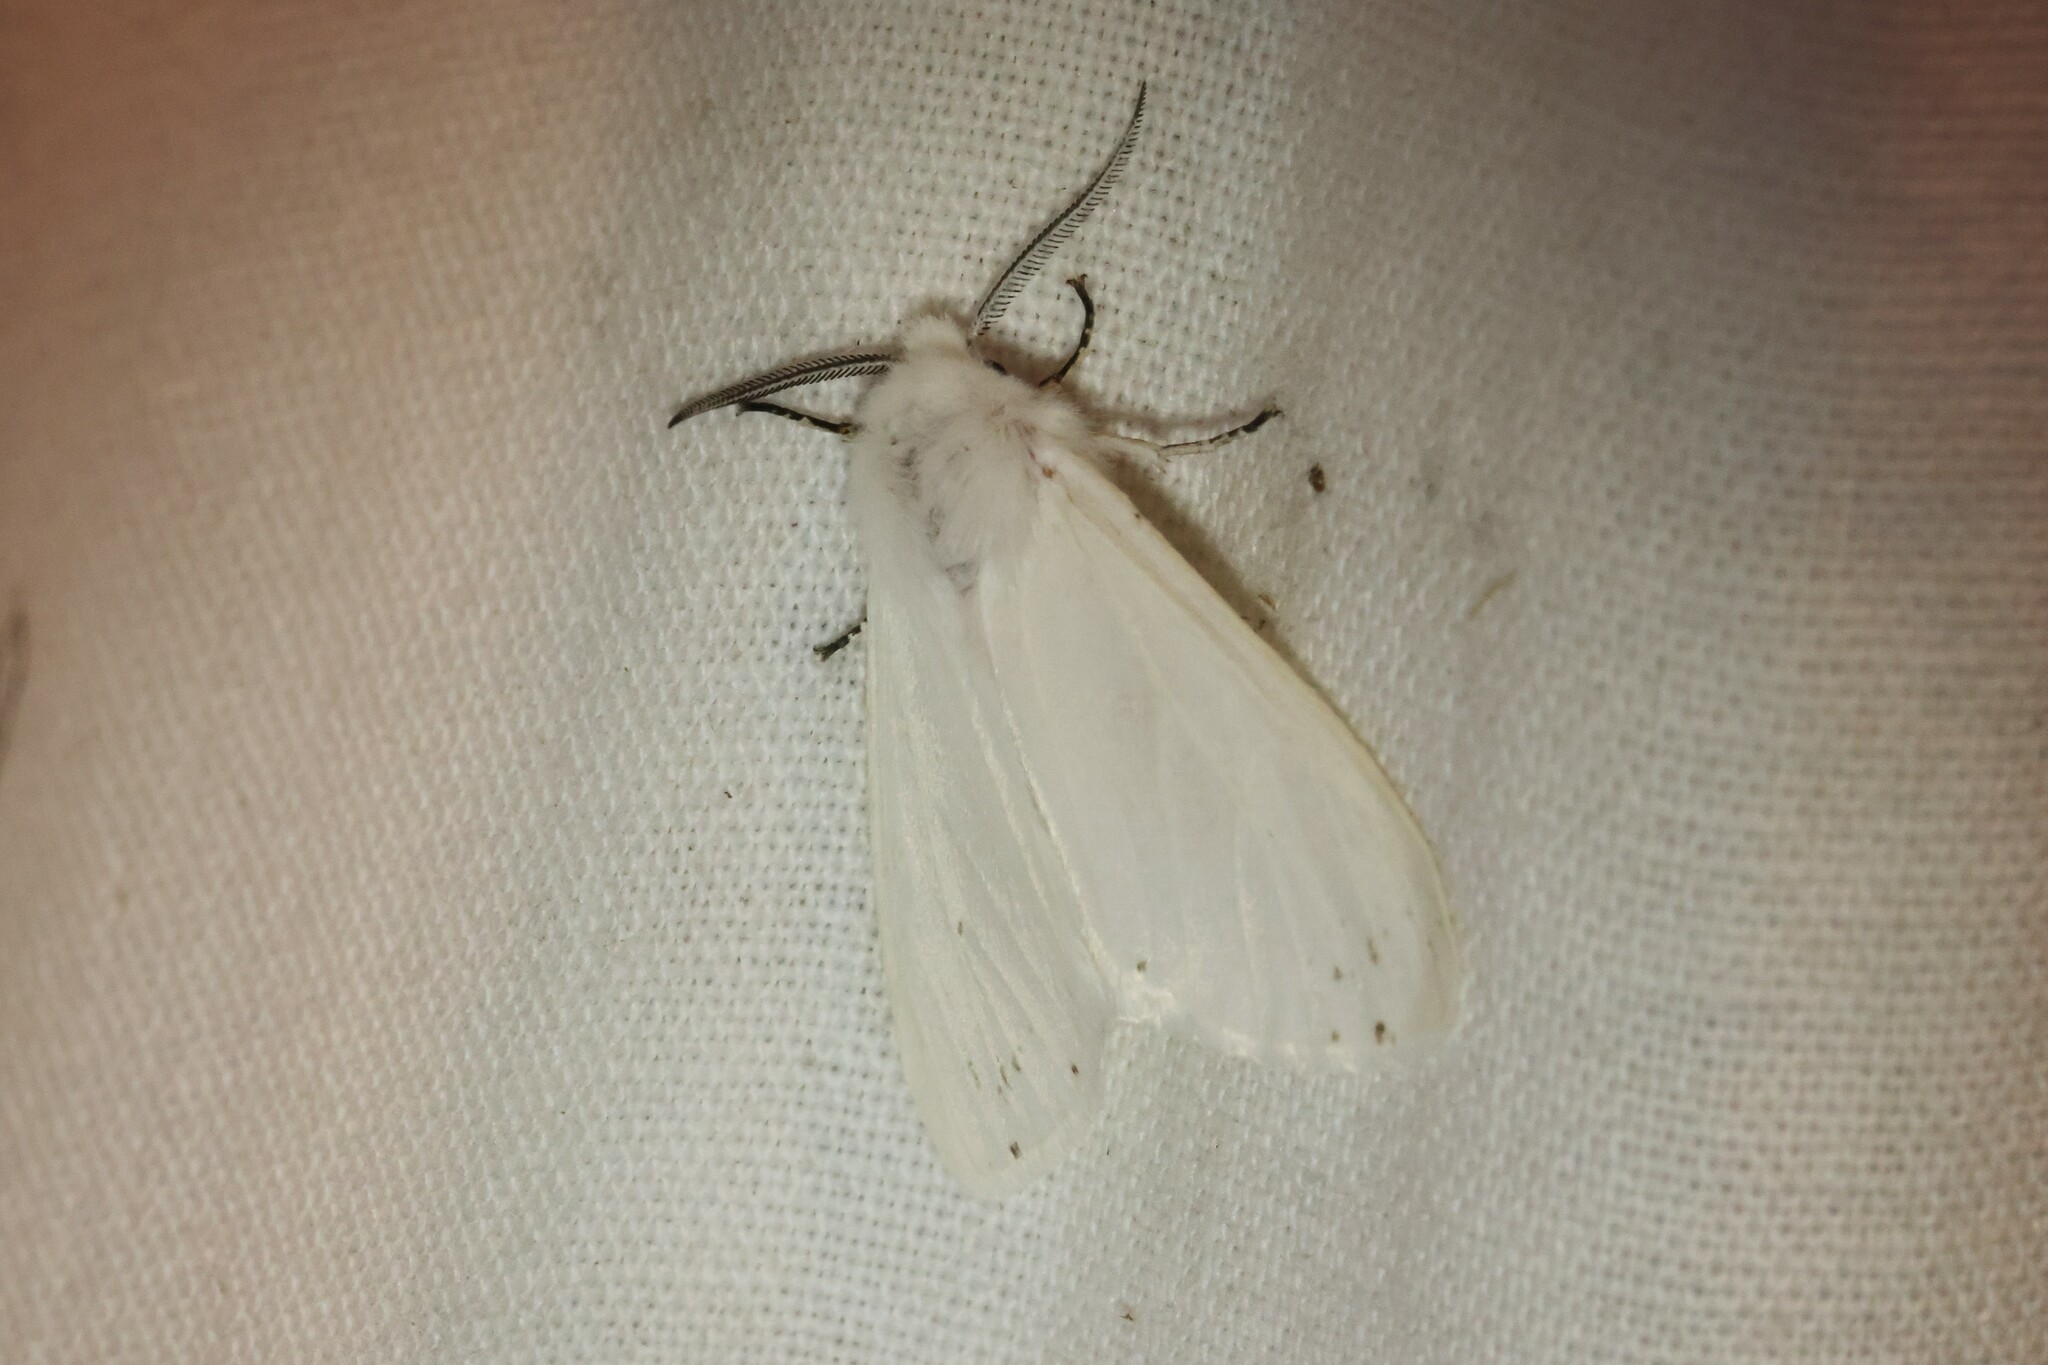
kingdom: Animalia
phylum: Arthropoda
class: Insecta
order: Lepidoptera
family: Erebidae
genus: Hyphantria
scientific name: Hyphantria cunea
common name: American white moth
